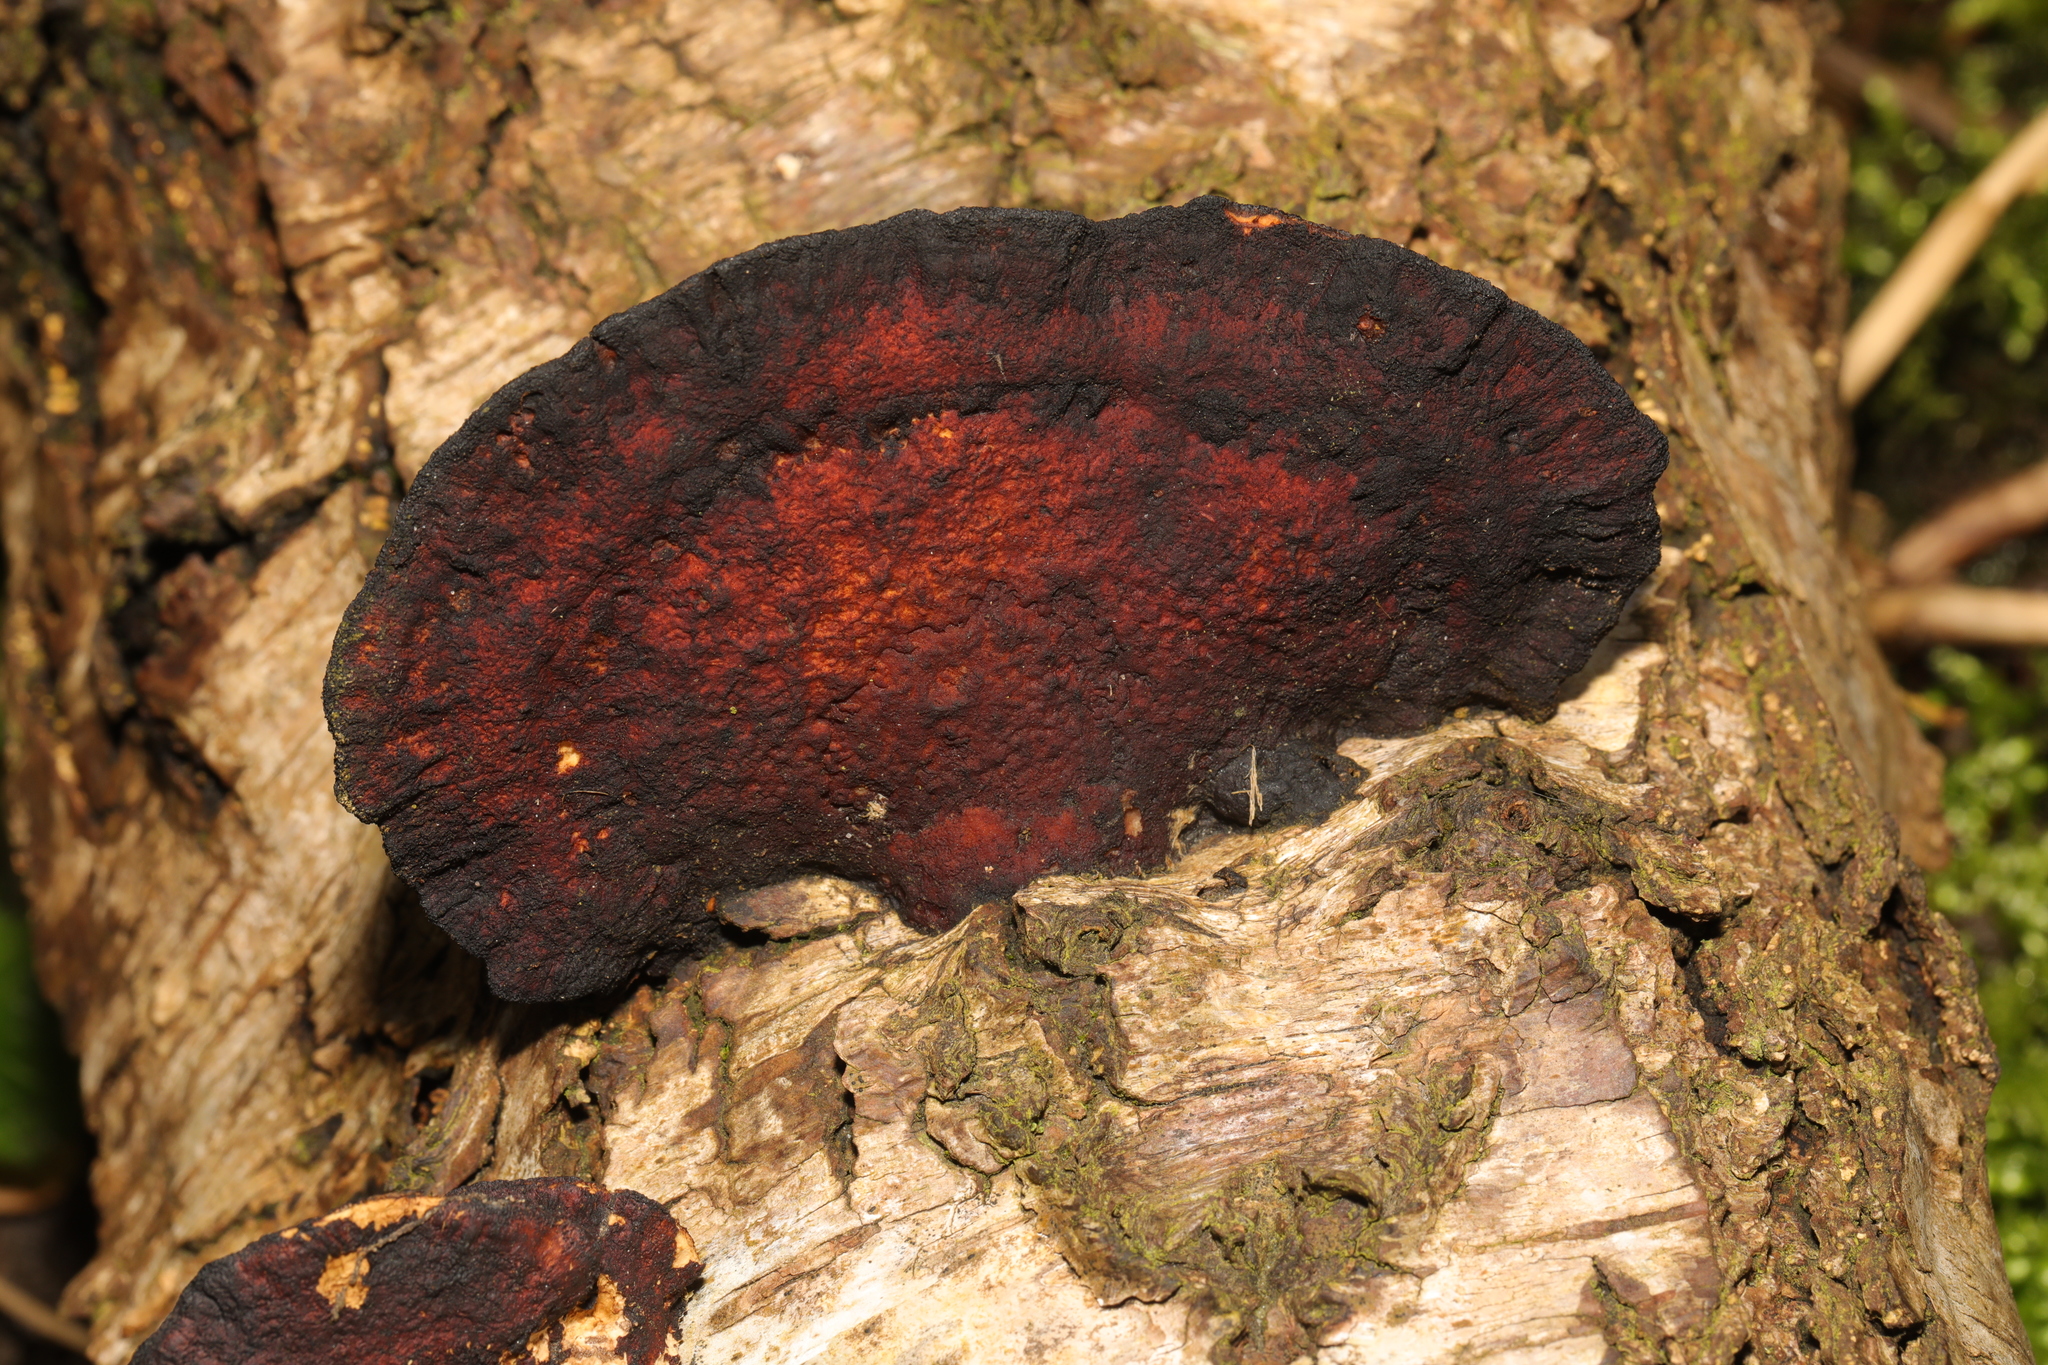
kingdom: Fungi
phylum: Basidiomycota
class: Agaricomycetes
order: Polyporales
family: Polyporaceae
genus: Daedaleopsis
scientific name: Daedaleopsis confragosa
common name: Blushing bracket
